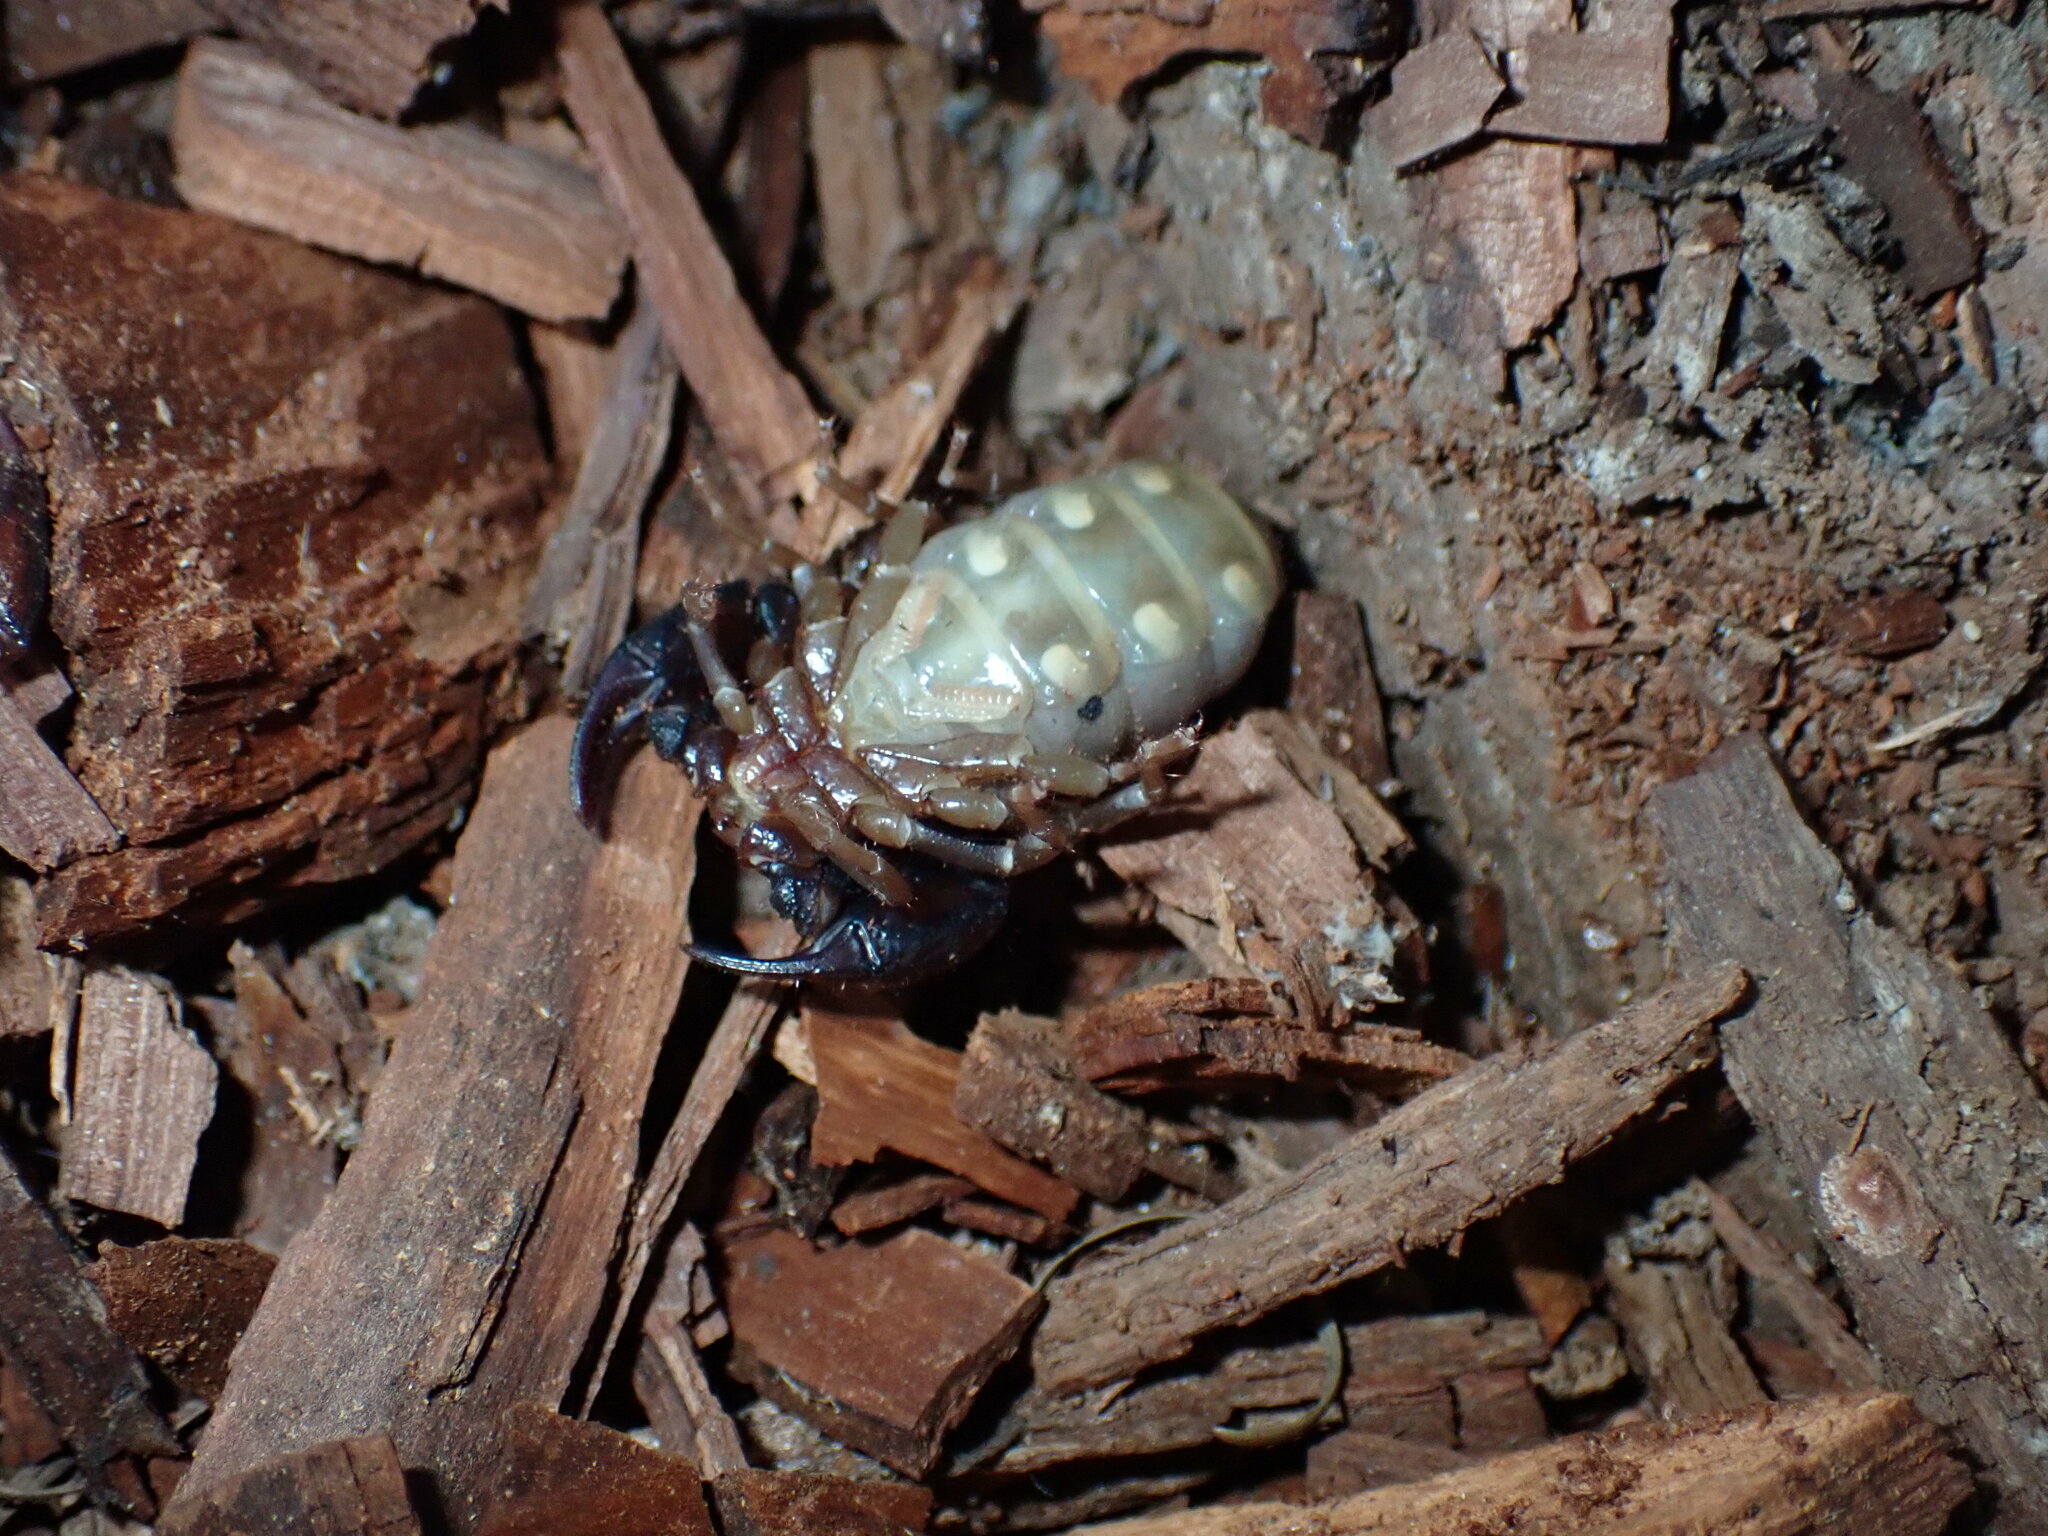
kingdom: Animalia
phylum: Arthropoda
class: Arachnida
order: Scorpiones
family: Chactidae
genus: Uroctonus
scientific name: Uroctonus mordax
